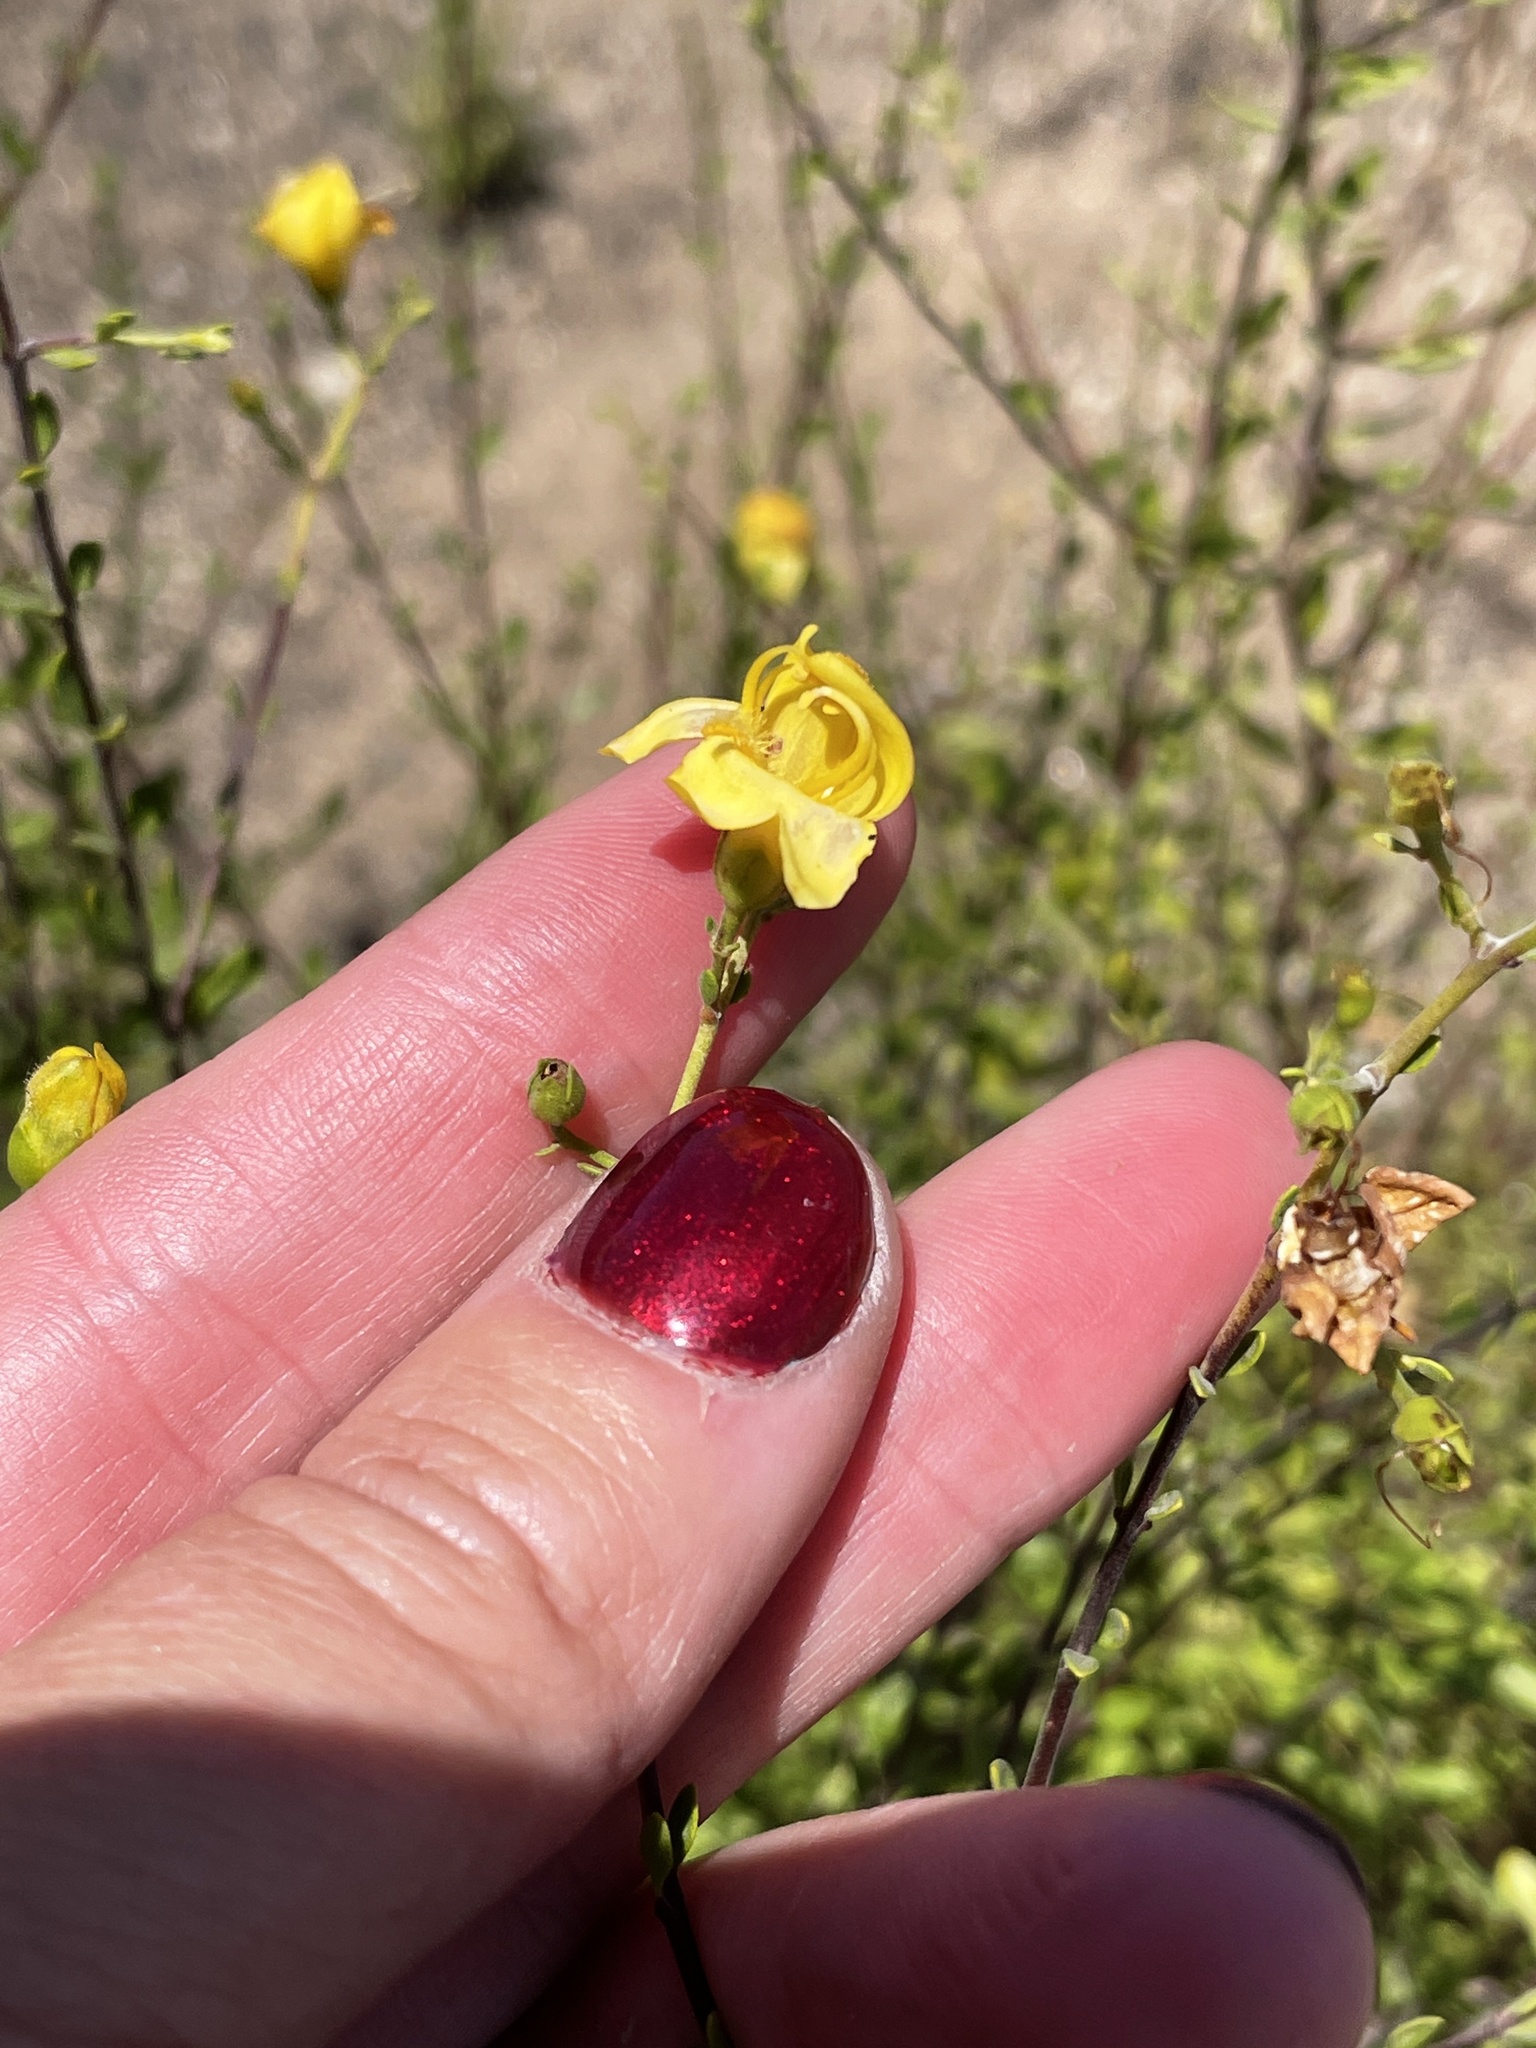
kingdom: Plantae
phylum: Tracheophyta
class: Magnoliopsida
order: Lamiales
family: Plantaginaceae
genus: Keckiella
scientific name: Keckiella antirrhinoides
